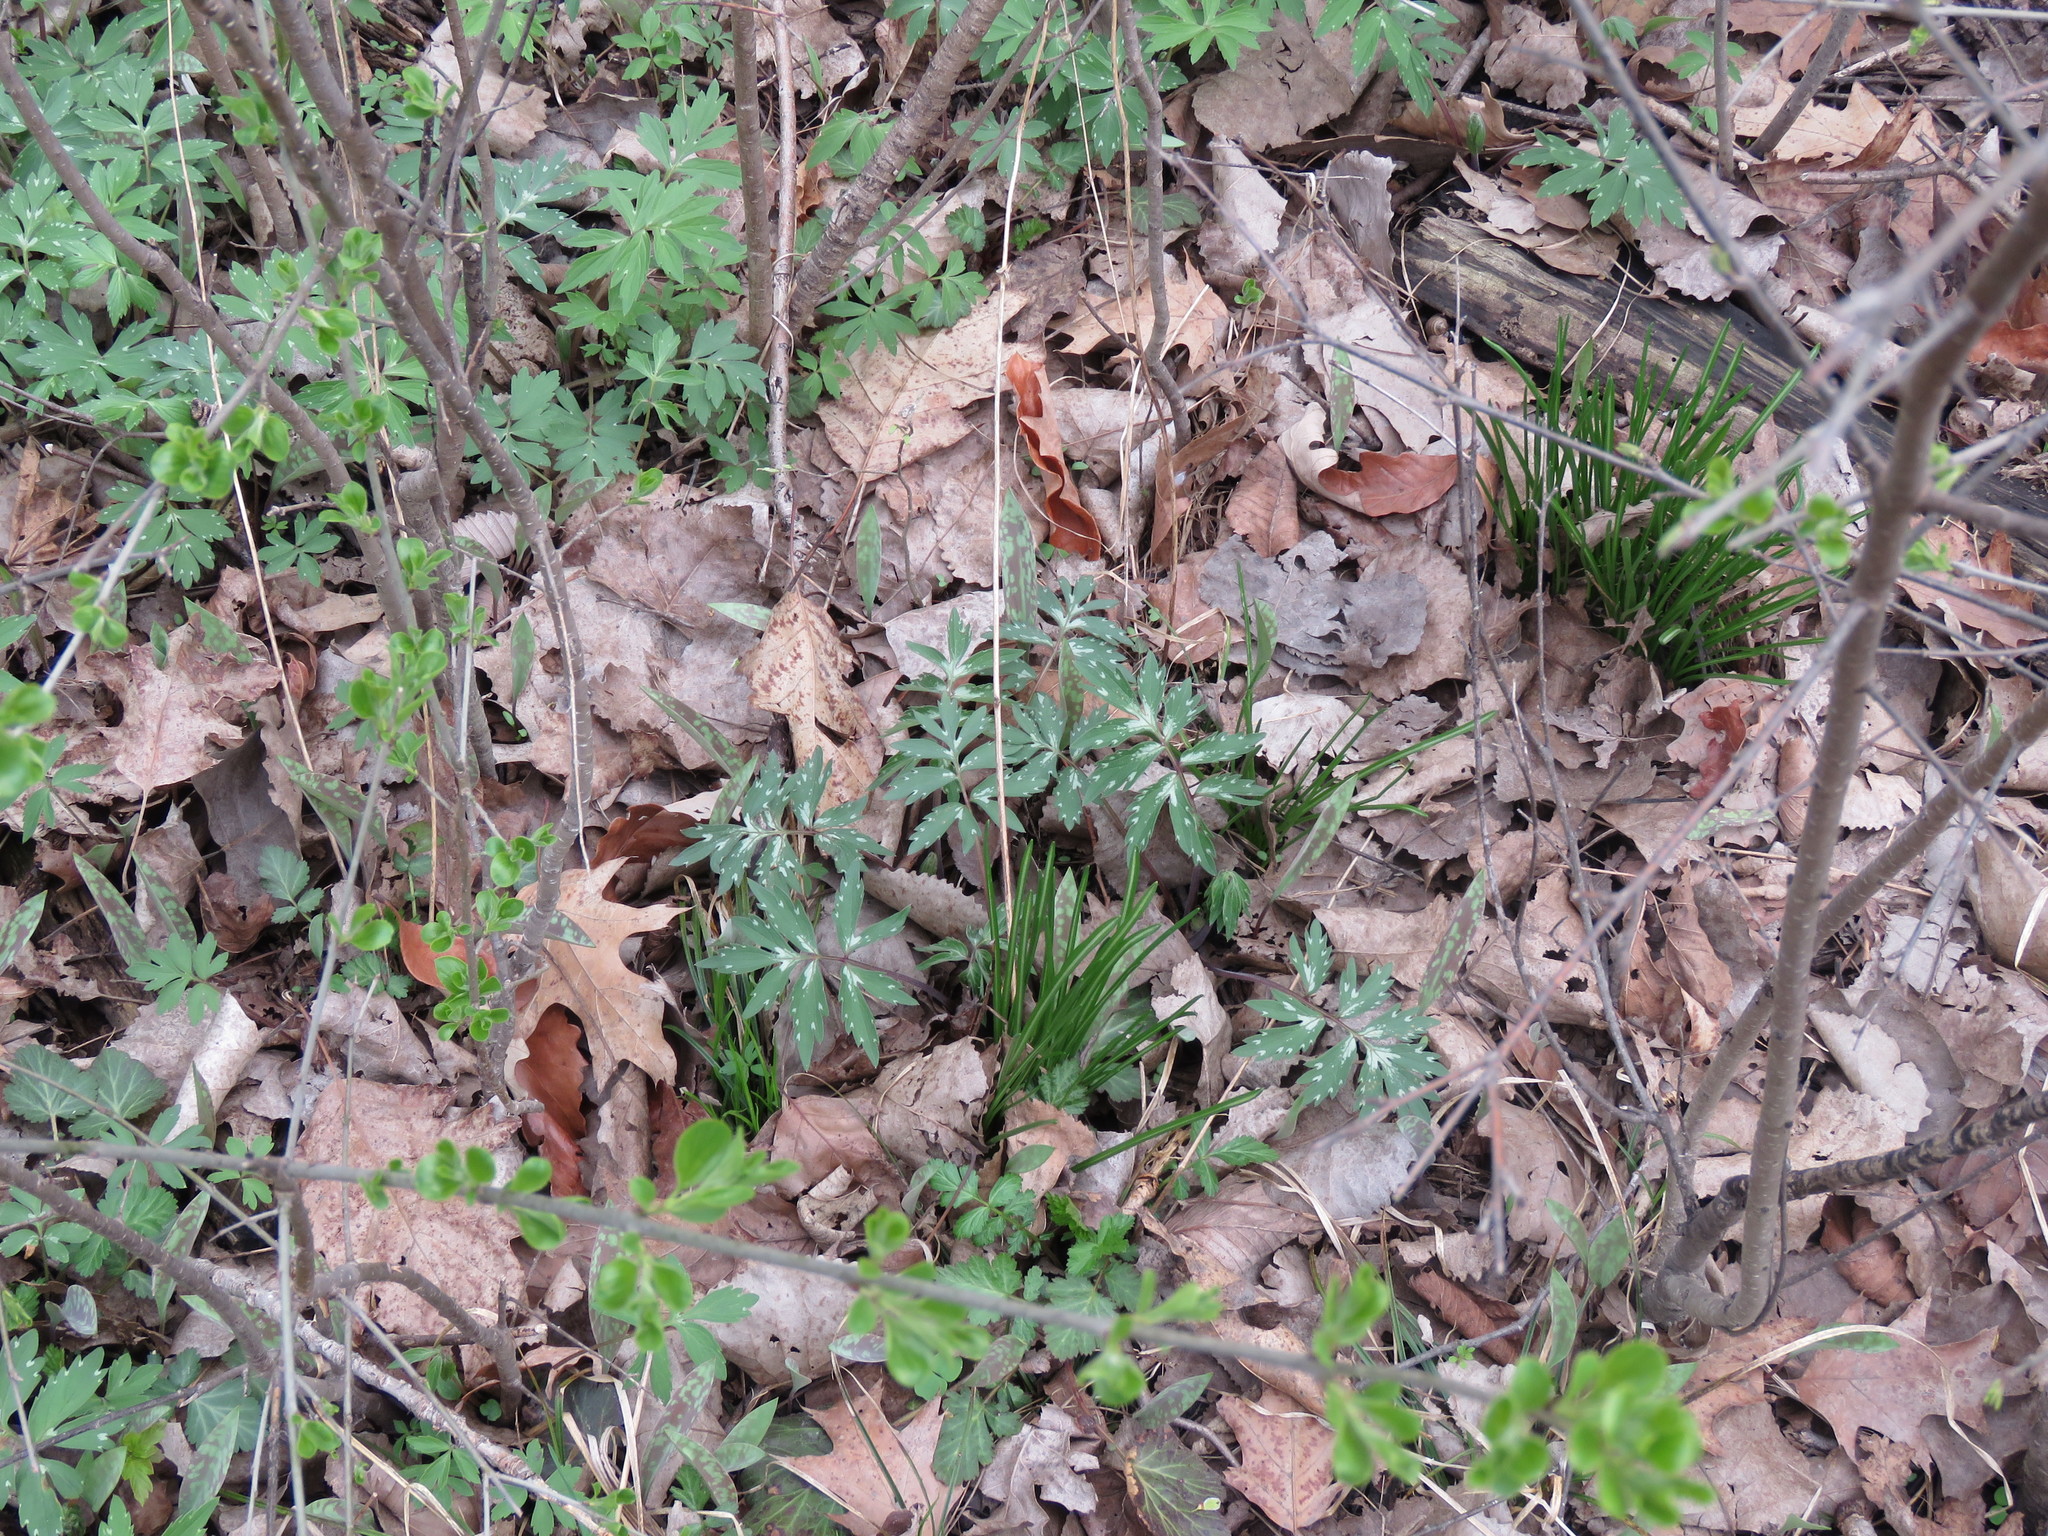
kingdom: Plantae
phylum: Tracheophyta
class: Magnoliopsida
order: Boraginales
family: Hydrophyllaceae
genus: Hydrophyllum
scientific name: Hydrophyllum virginianum
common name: Virginia waterleaf
